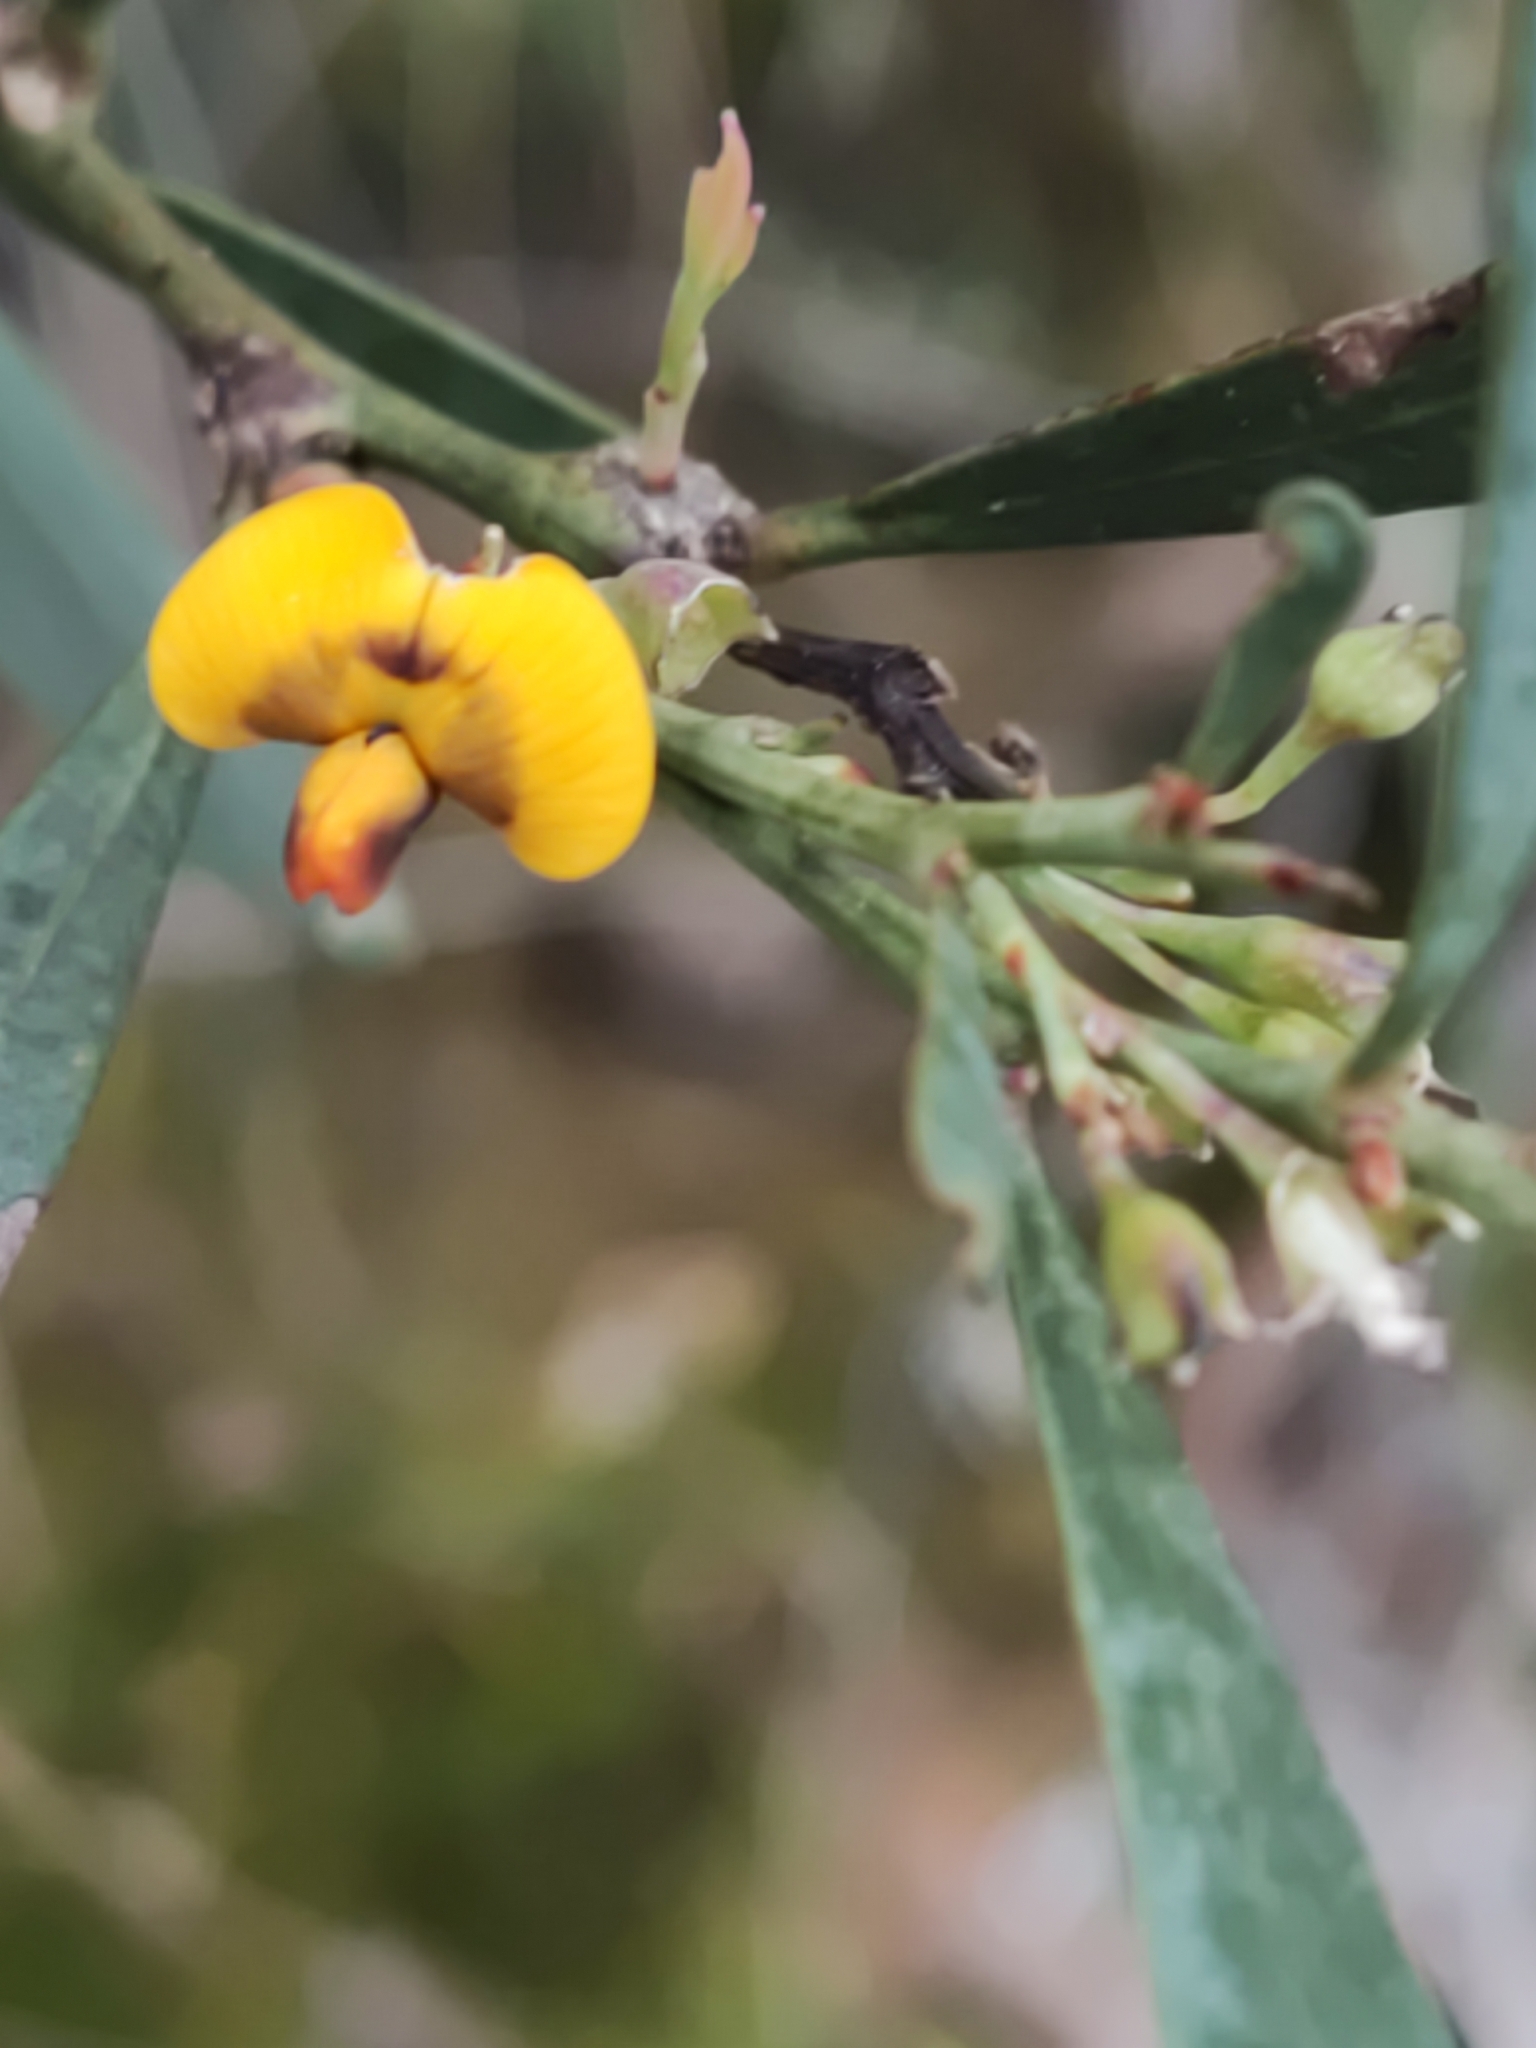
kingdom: Plantae
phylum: Tracheophyta
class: Magnoliopsida
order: Fabales
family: Fabaceae
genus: Daviesia
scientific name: Daviesia
